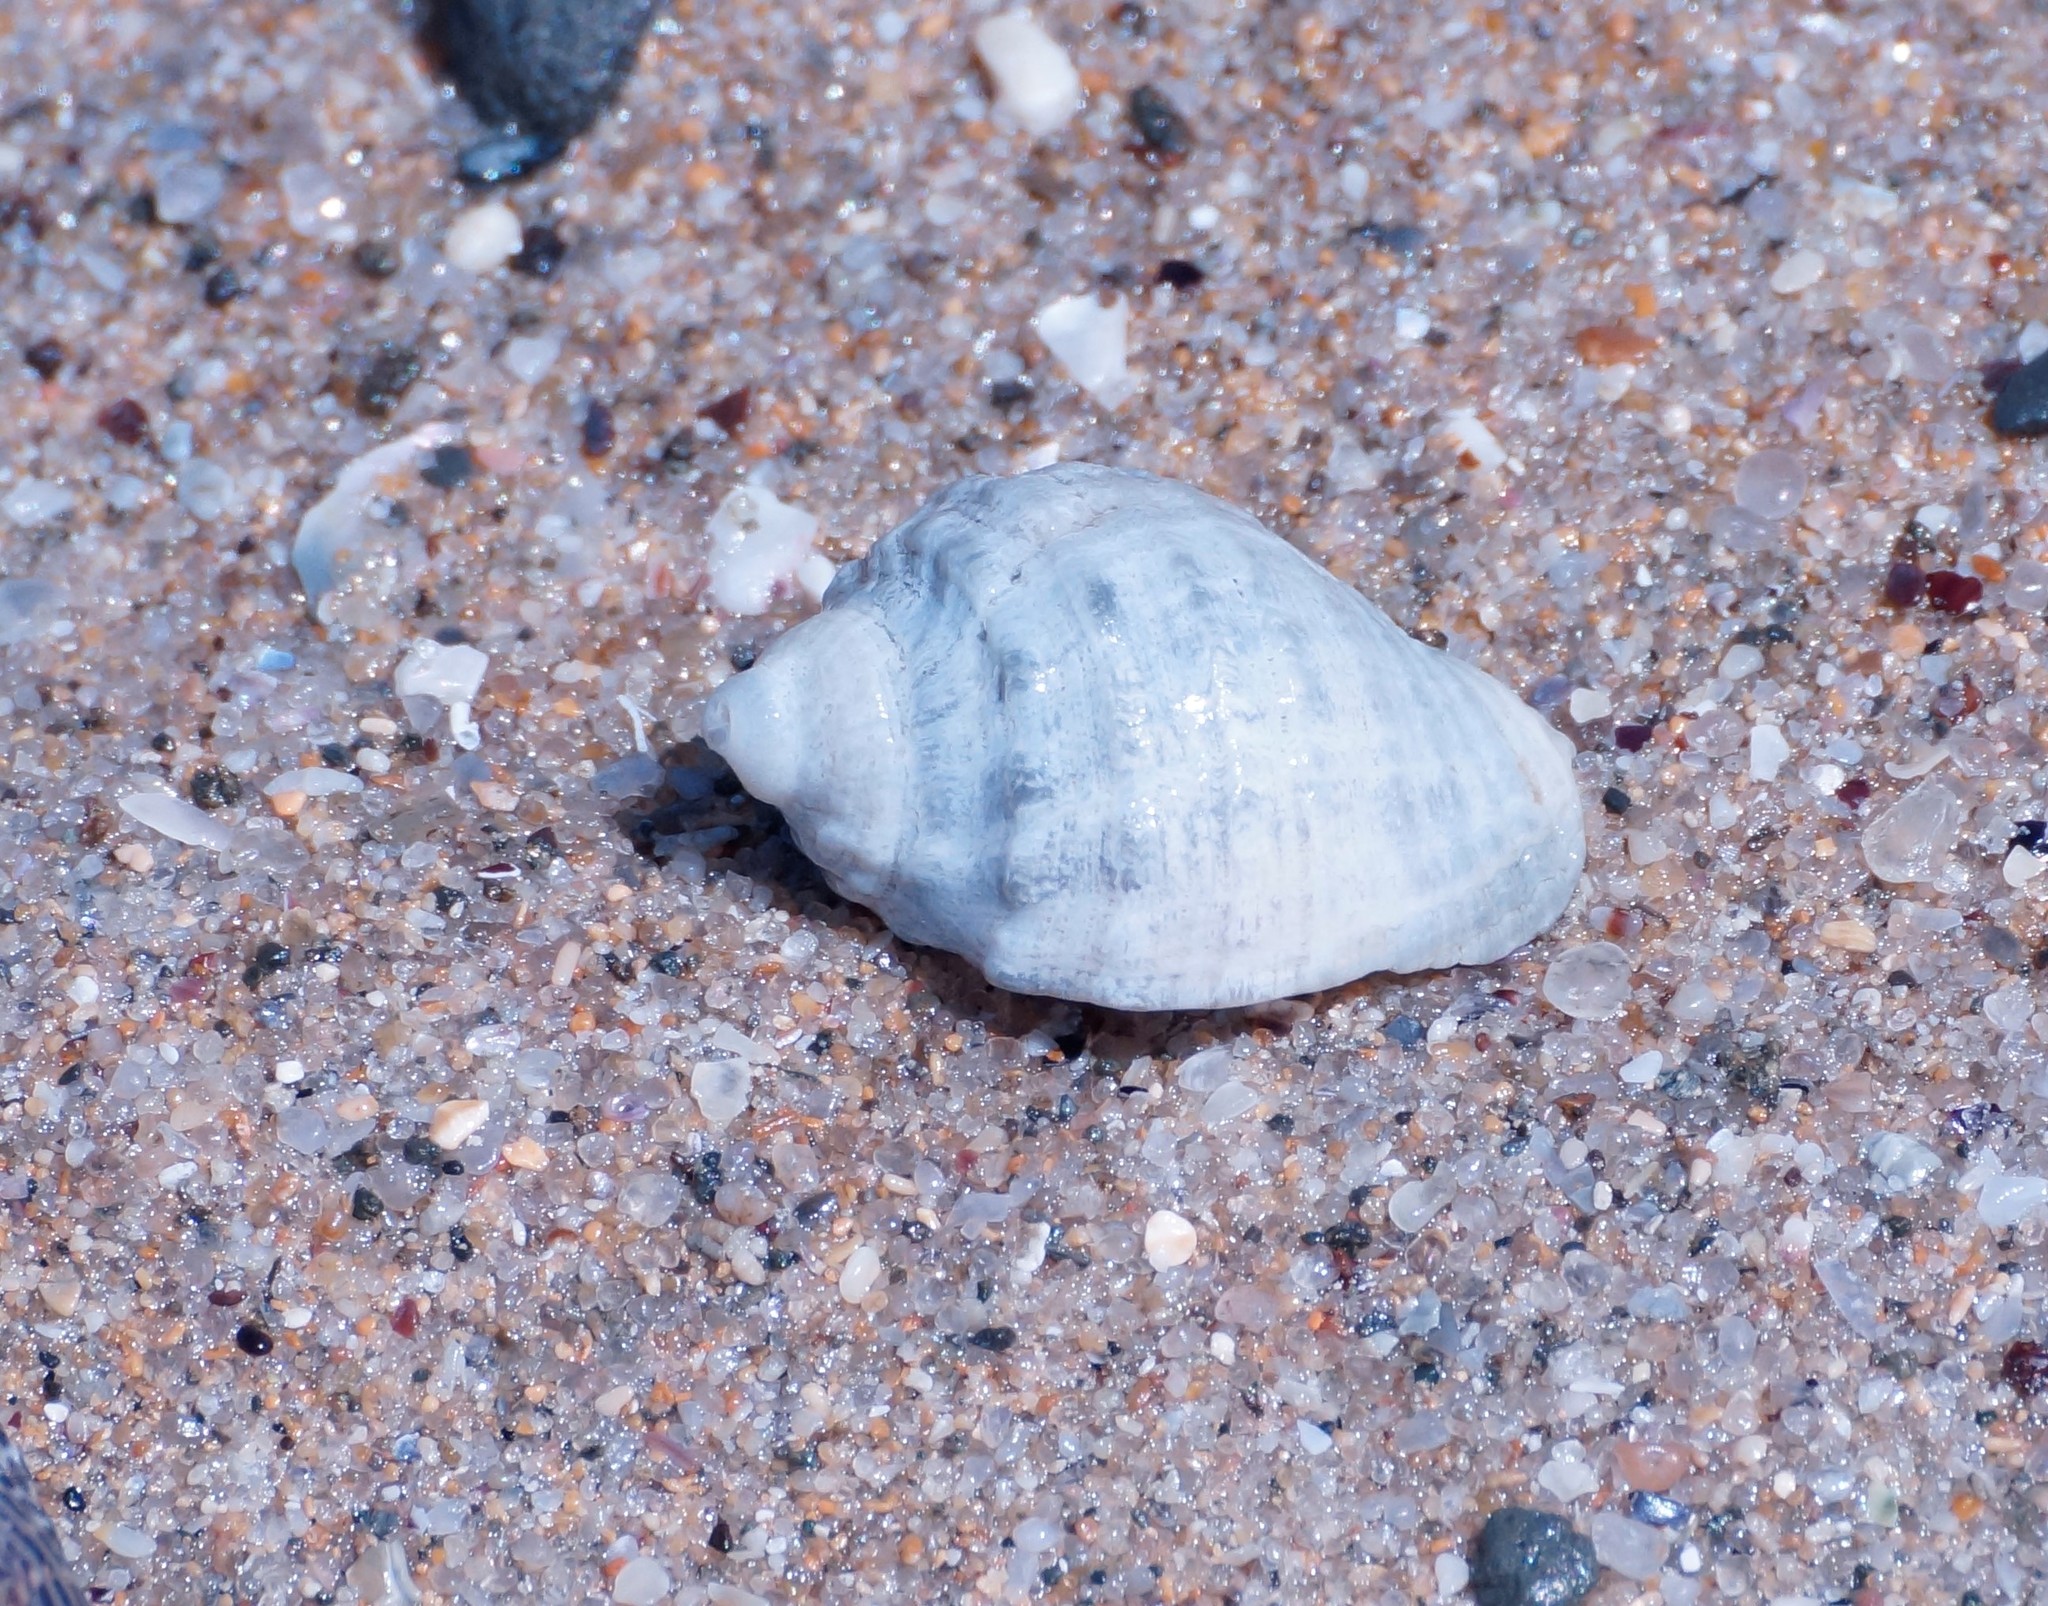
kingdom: Animalia
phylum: Mollusca
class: Gastropoda
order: Neogastropoda
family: Muricidae
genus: Dicathais
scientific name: Dicathais orbita
